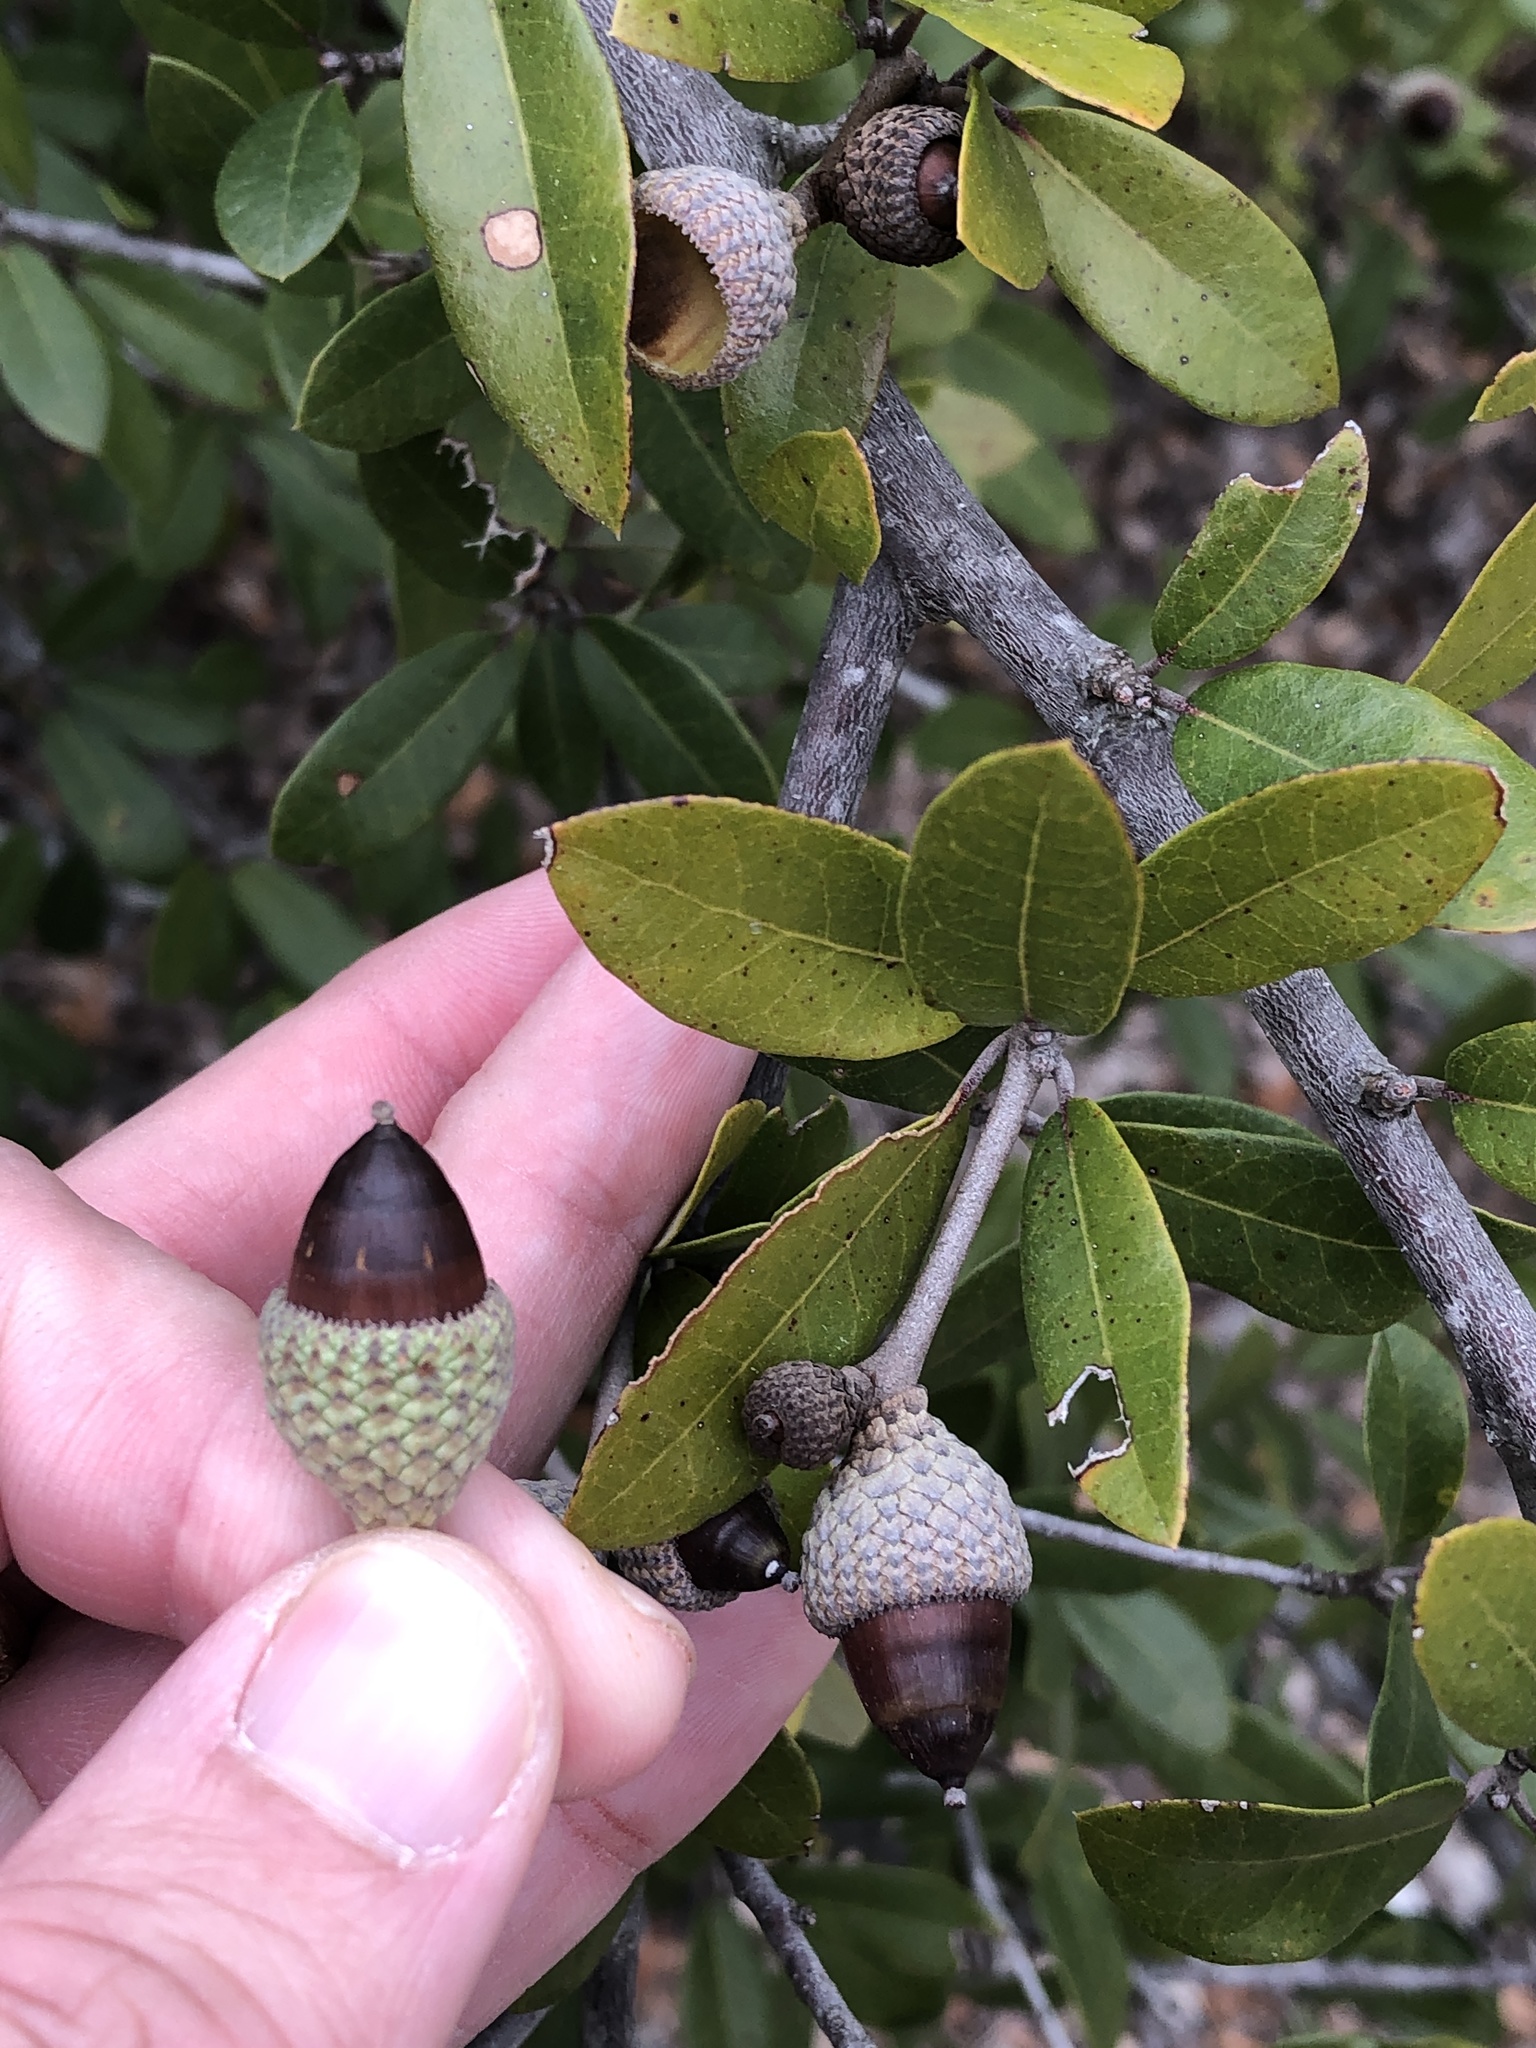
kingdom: Plantae
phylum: Tracheophyta
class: Magnoliopsida
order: Fagales
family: Fagaceae
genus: Quercus
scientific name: Quercus fusiformis
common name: Texas live oak
